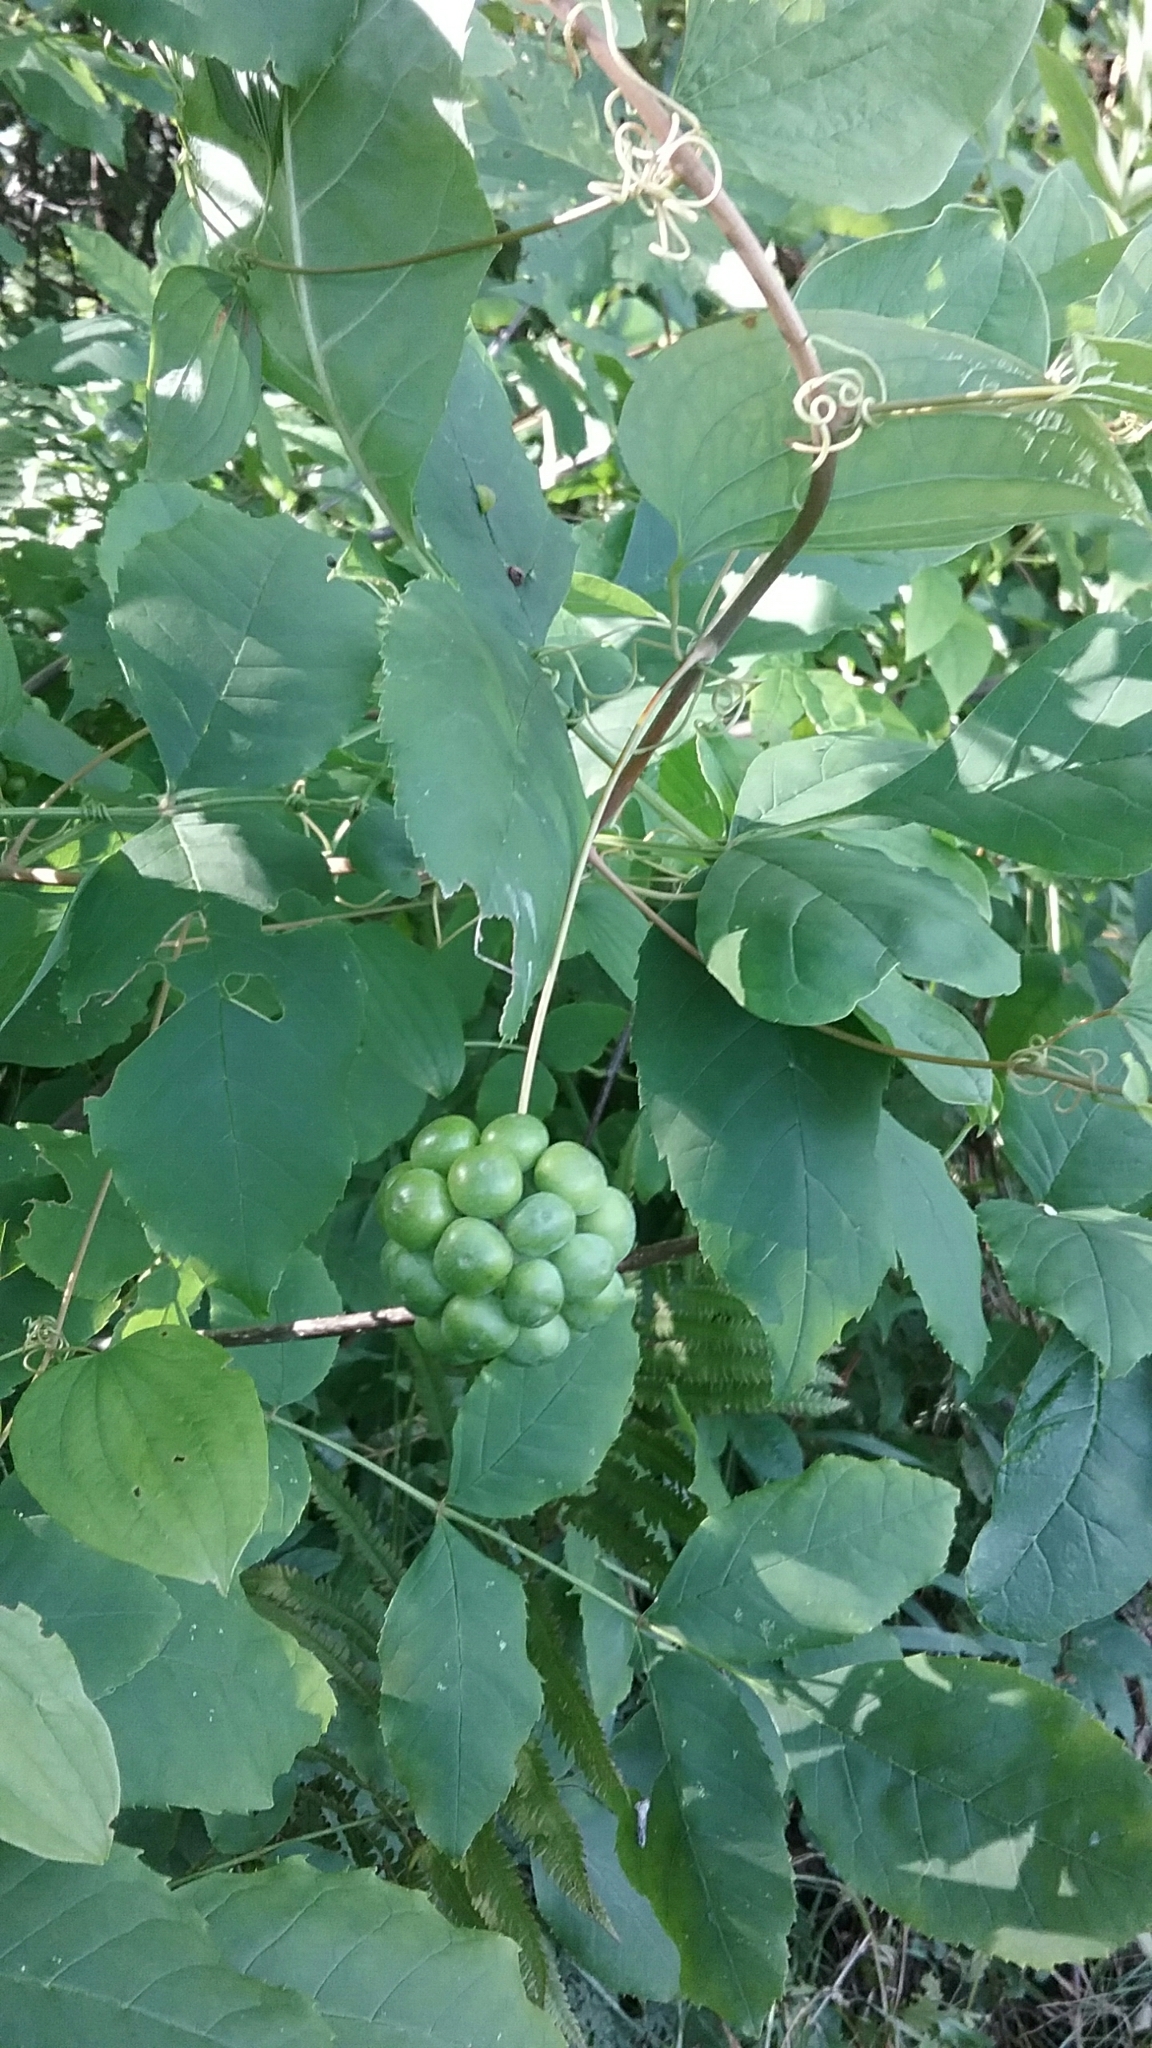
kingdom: Plantae
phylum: Tracheophyta
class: Liliopsida
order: Liliales
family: Smilacaceae
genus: Smilax
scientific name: Smilax herbacea
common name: Jacob's-ladder
